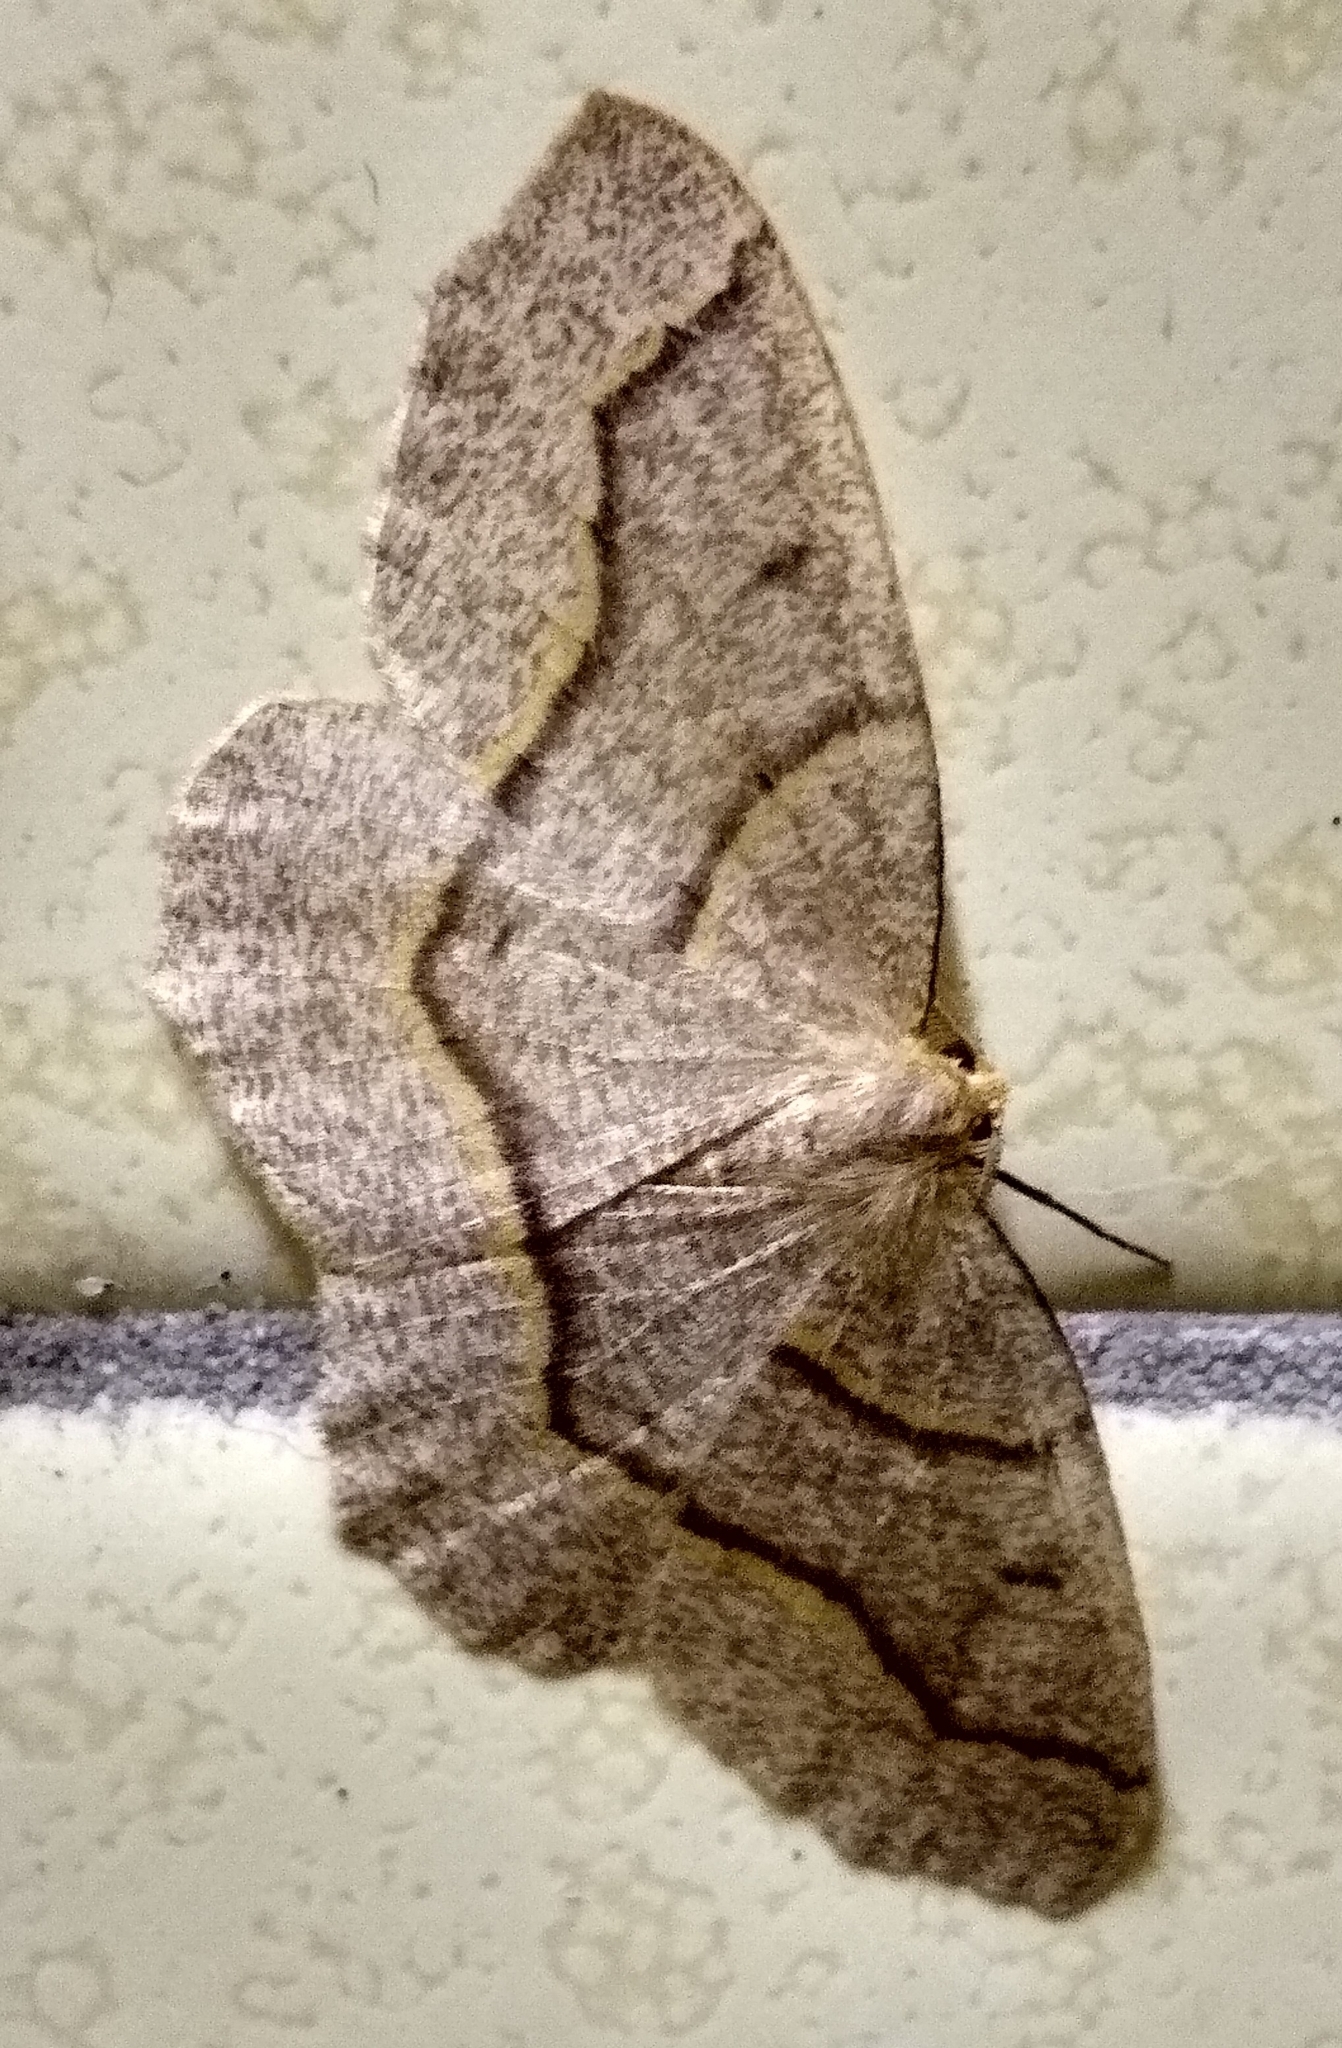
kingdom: Animalia
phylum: Arthropoda
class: Insecta
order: Lepidoptera
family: Geometridae
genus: Lambdina
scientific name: Lambdina fiscellaria
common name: Hemlock looper
